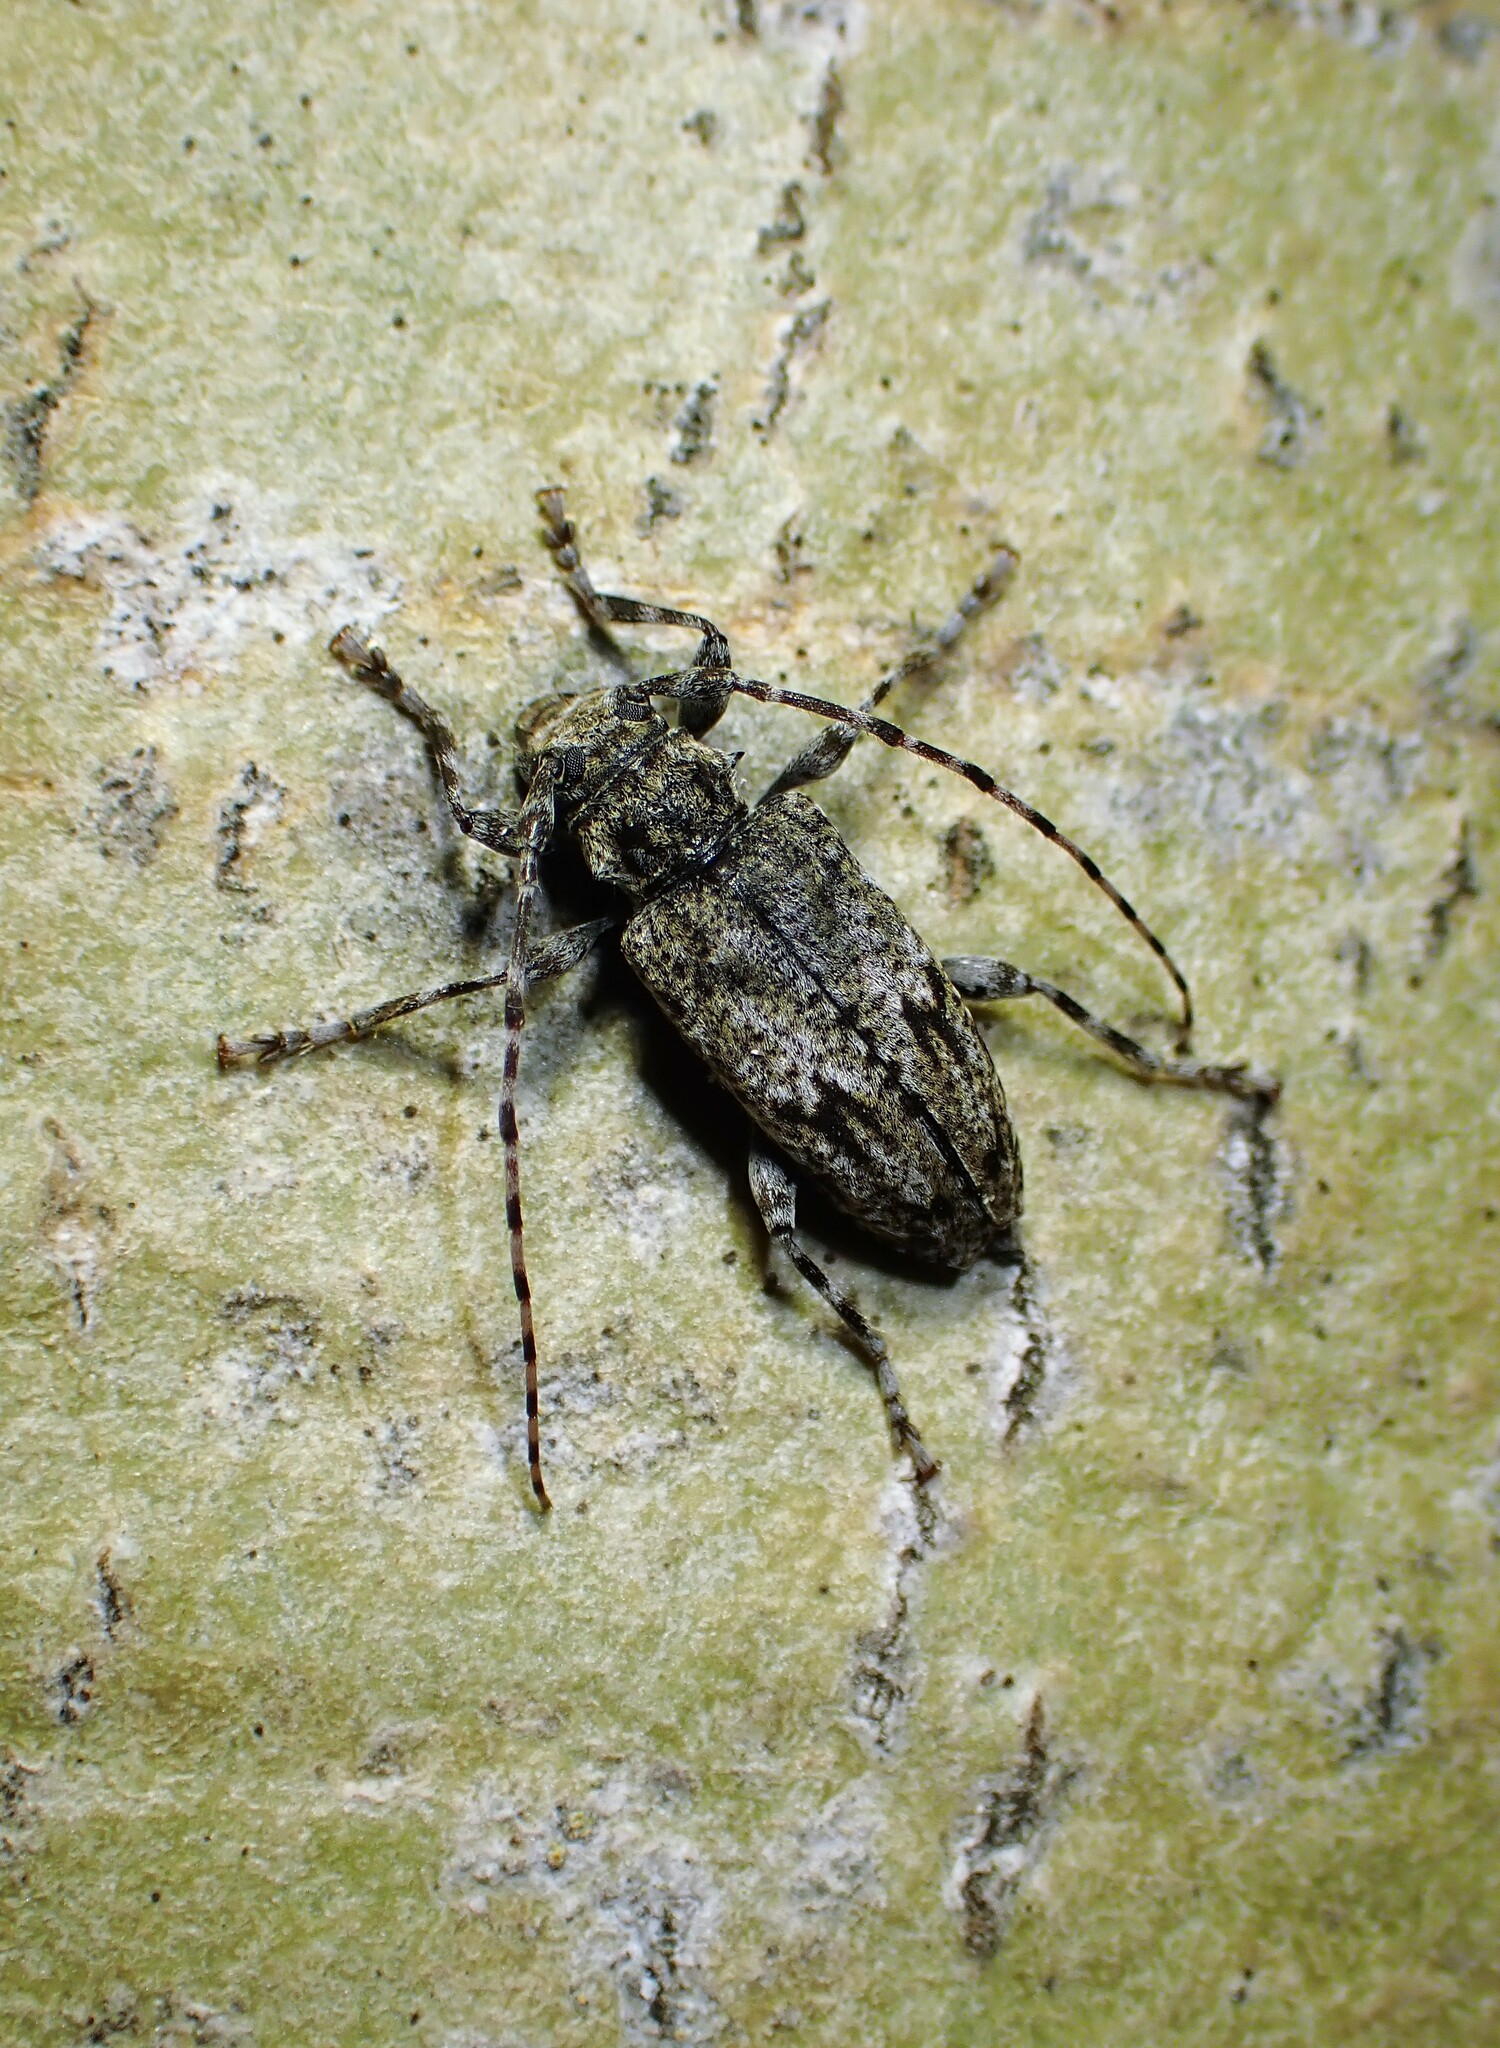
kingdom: Animalia
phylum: Arthropoda
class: Insecta
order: Coleoptera
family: Cerambycidae
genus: Aegomorphus
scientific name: Aegomorphus modestus
